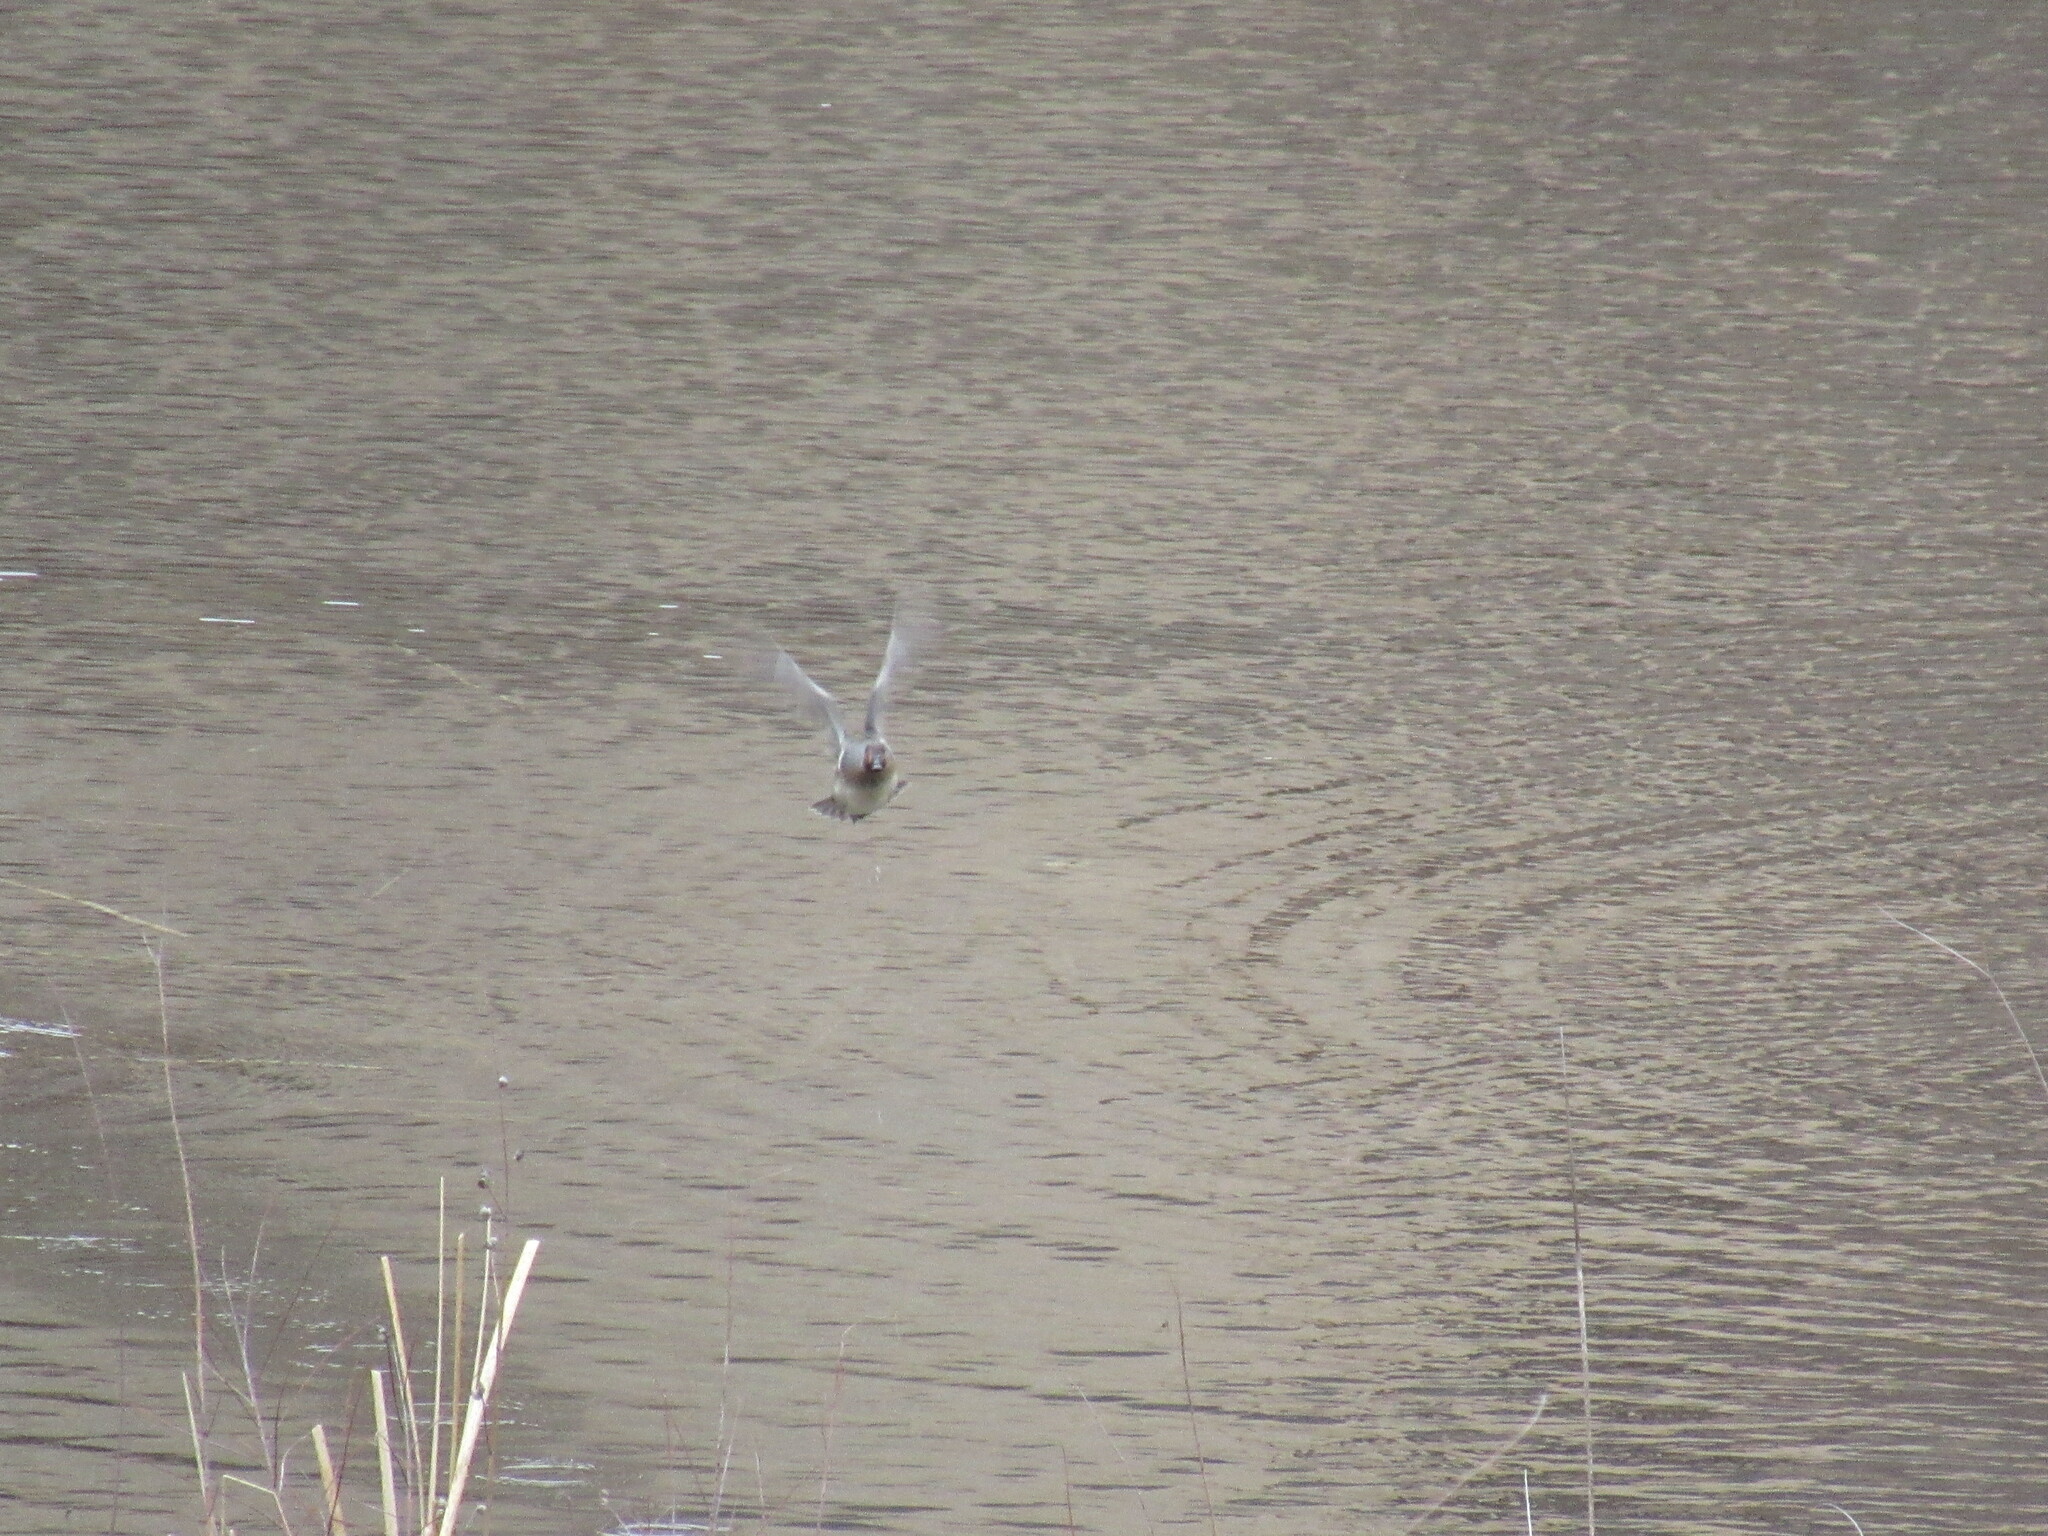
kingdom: Animalia
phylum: Chordata
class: Aves
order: Anseriformes
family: Anatidae
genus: Anas
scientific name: Anas crecca
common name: Eurasian teal
